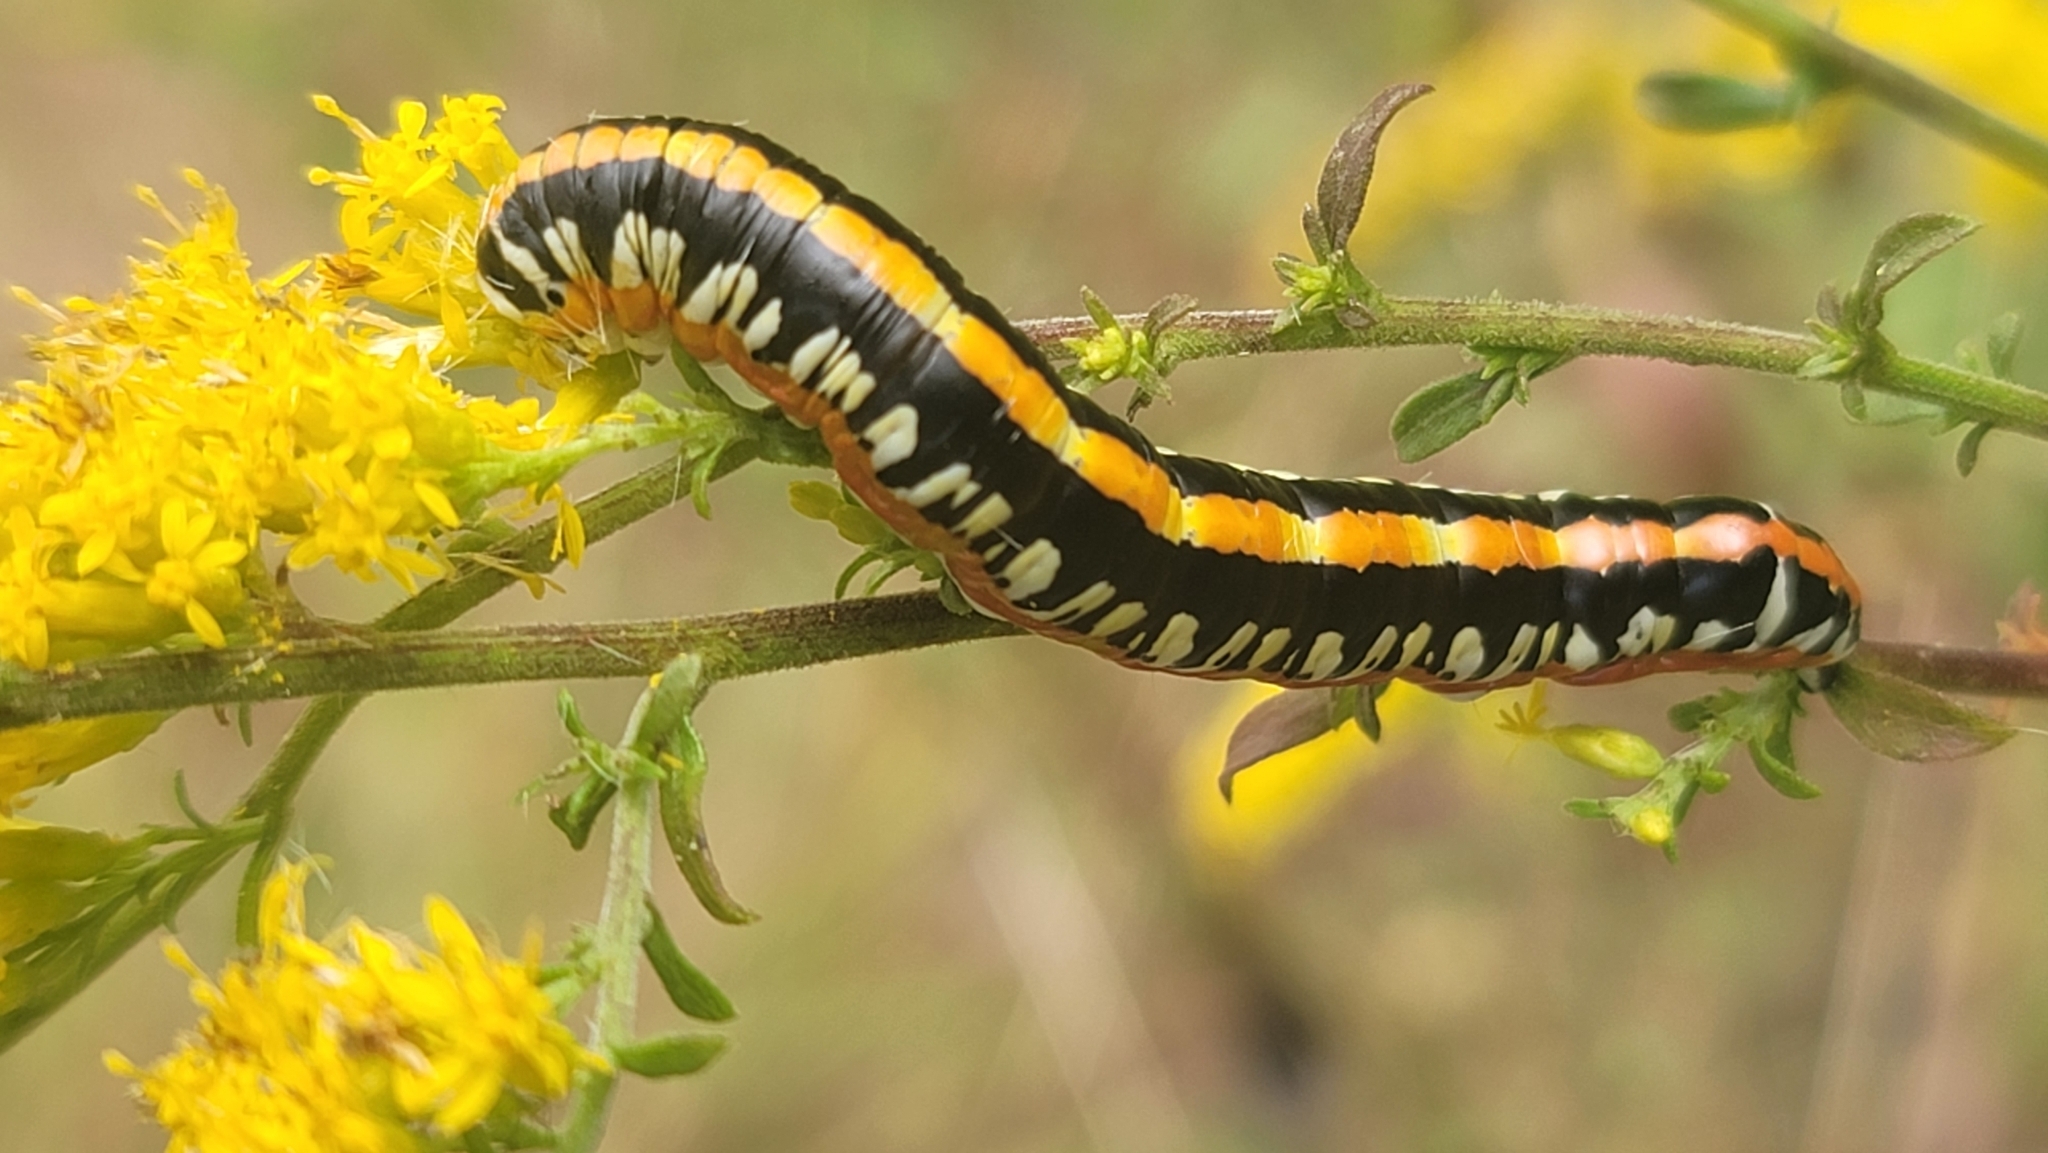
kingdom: Animalia
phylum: Arthropoda
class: Insecta
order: Lepidoptera
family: Noctuidae
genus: Cucullia
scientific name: Cucullia alfarata
